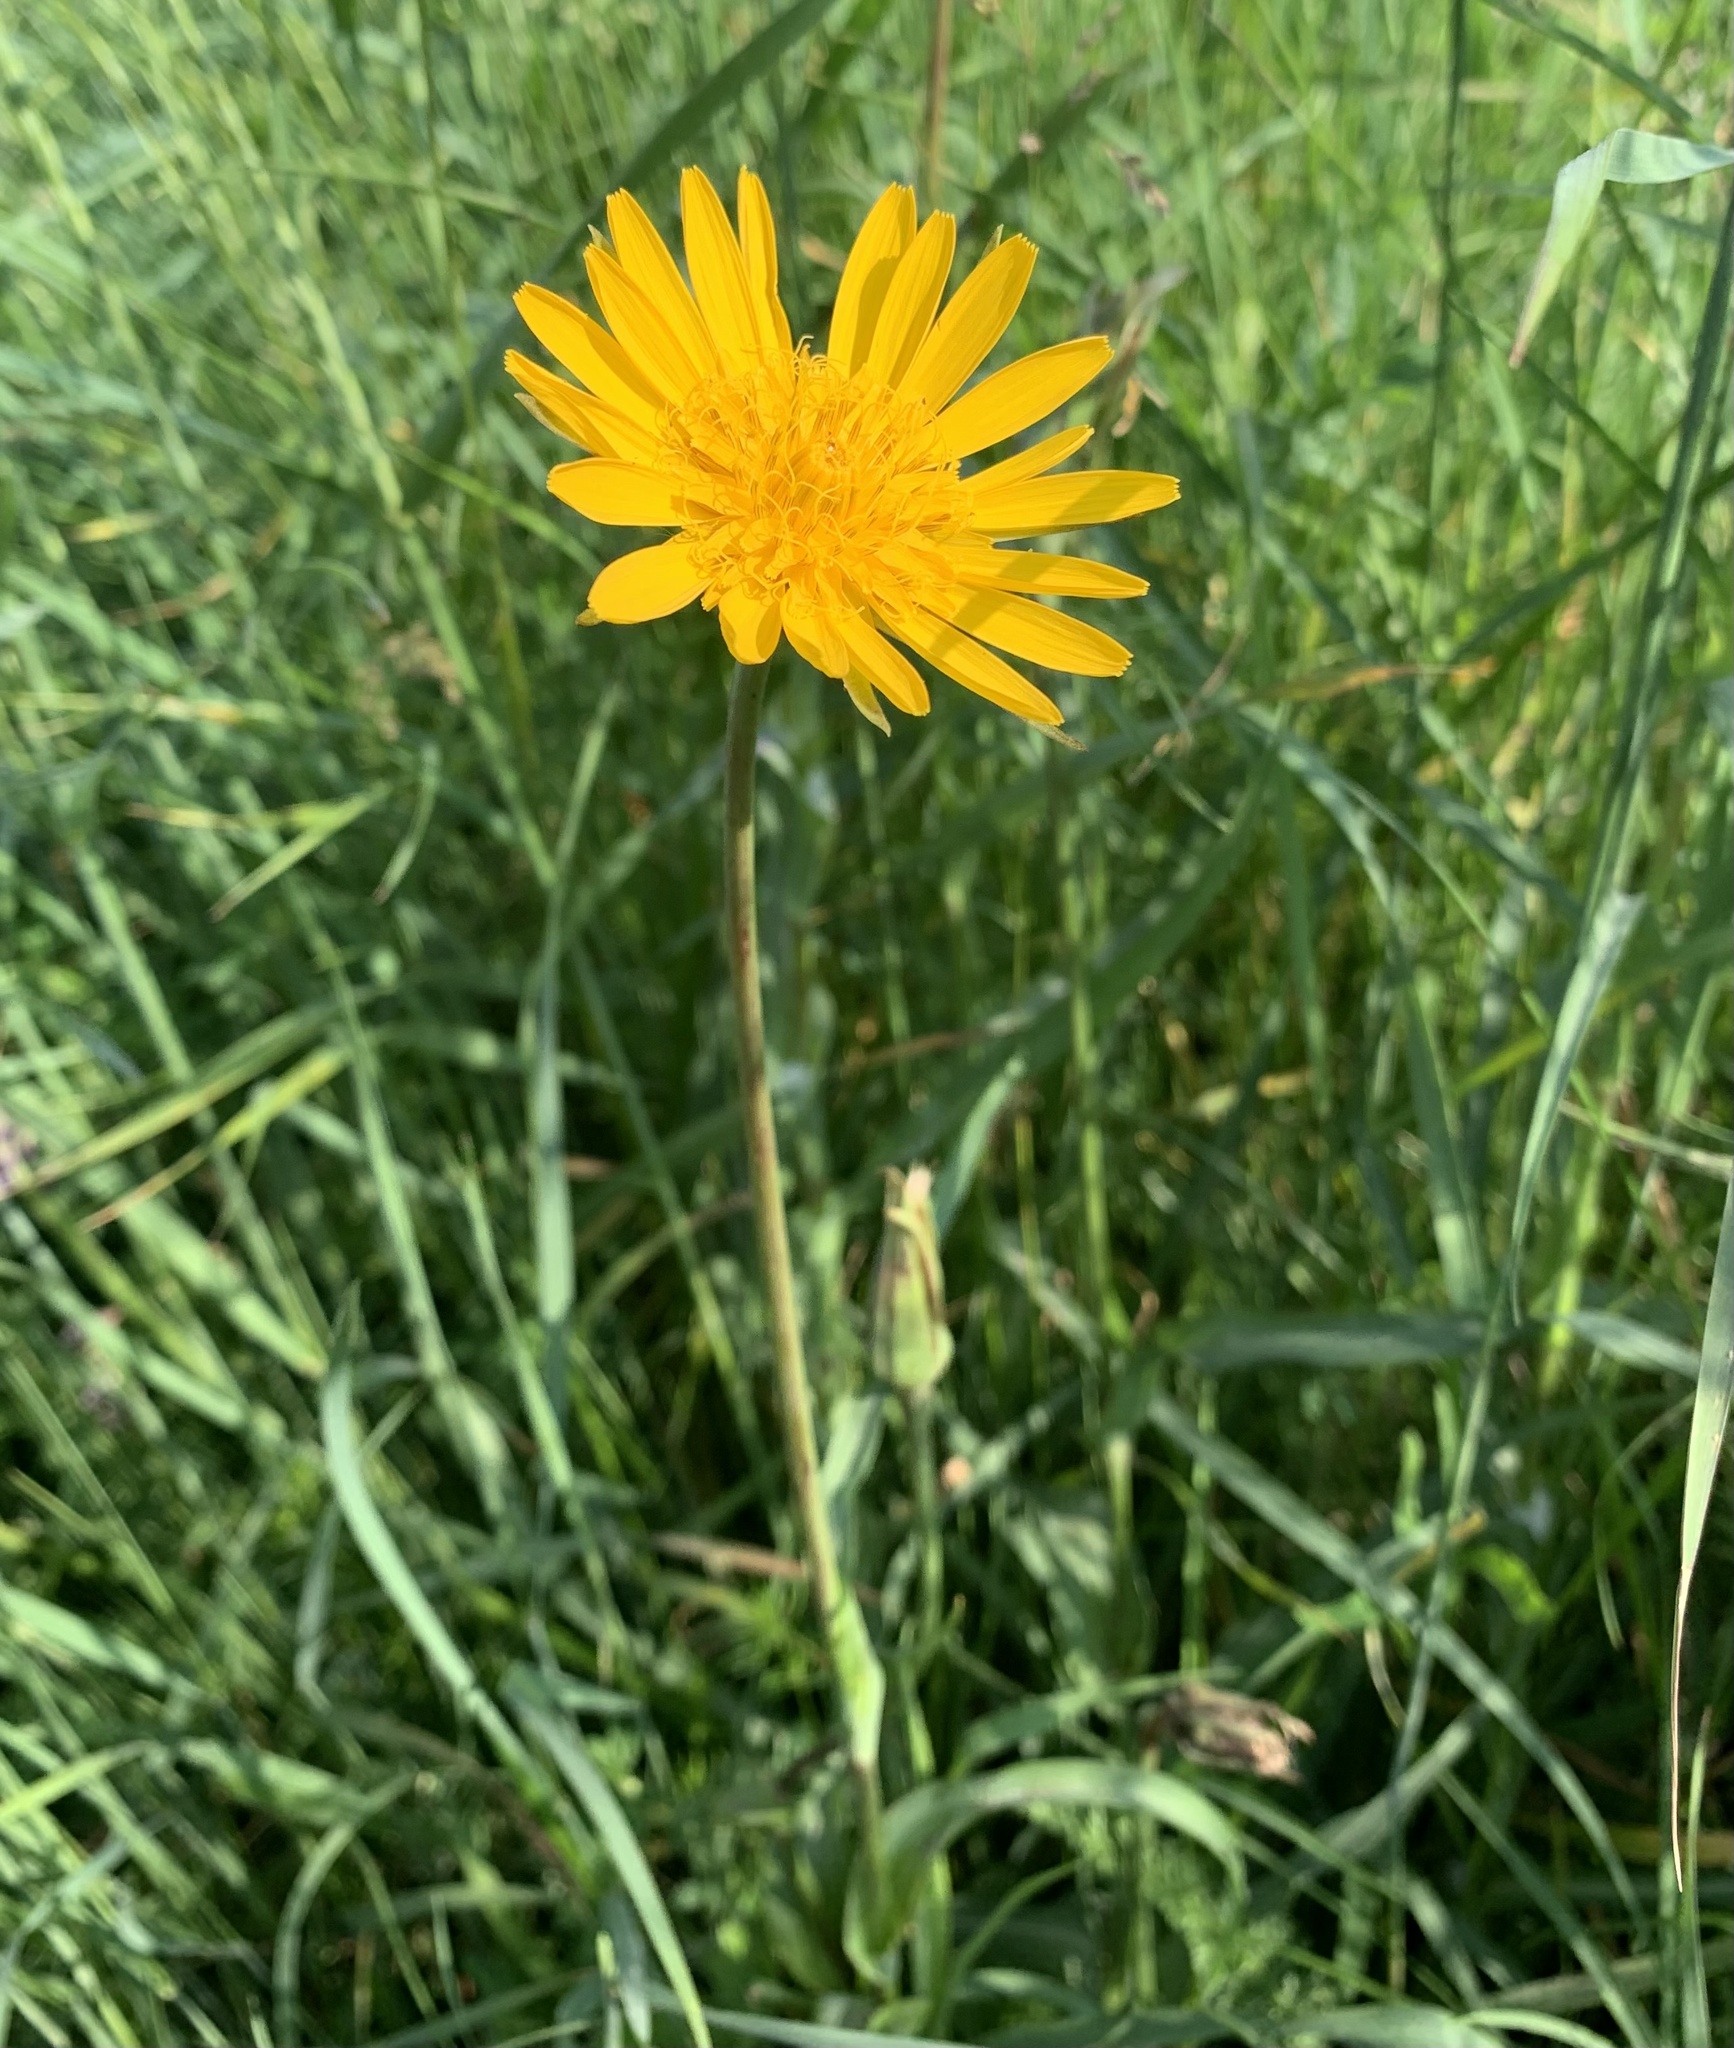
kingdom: Plantae
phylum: Tracheophyta
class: Magnoliopsida
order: Asterales
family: Asteraceae
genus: Tragopogon
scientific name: Tragopogon orientalis
